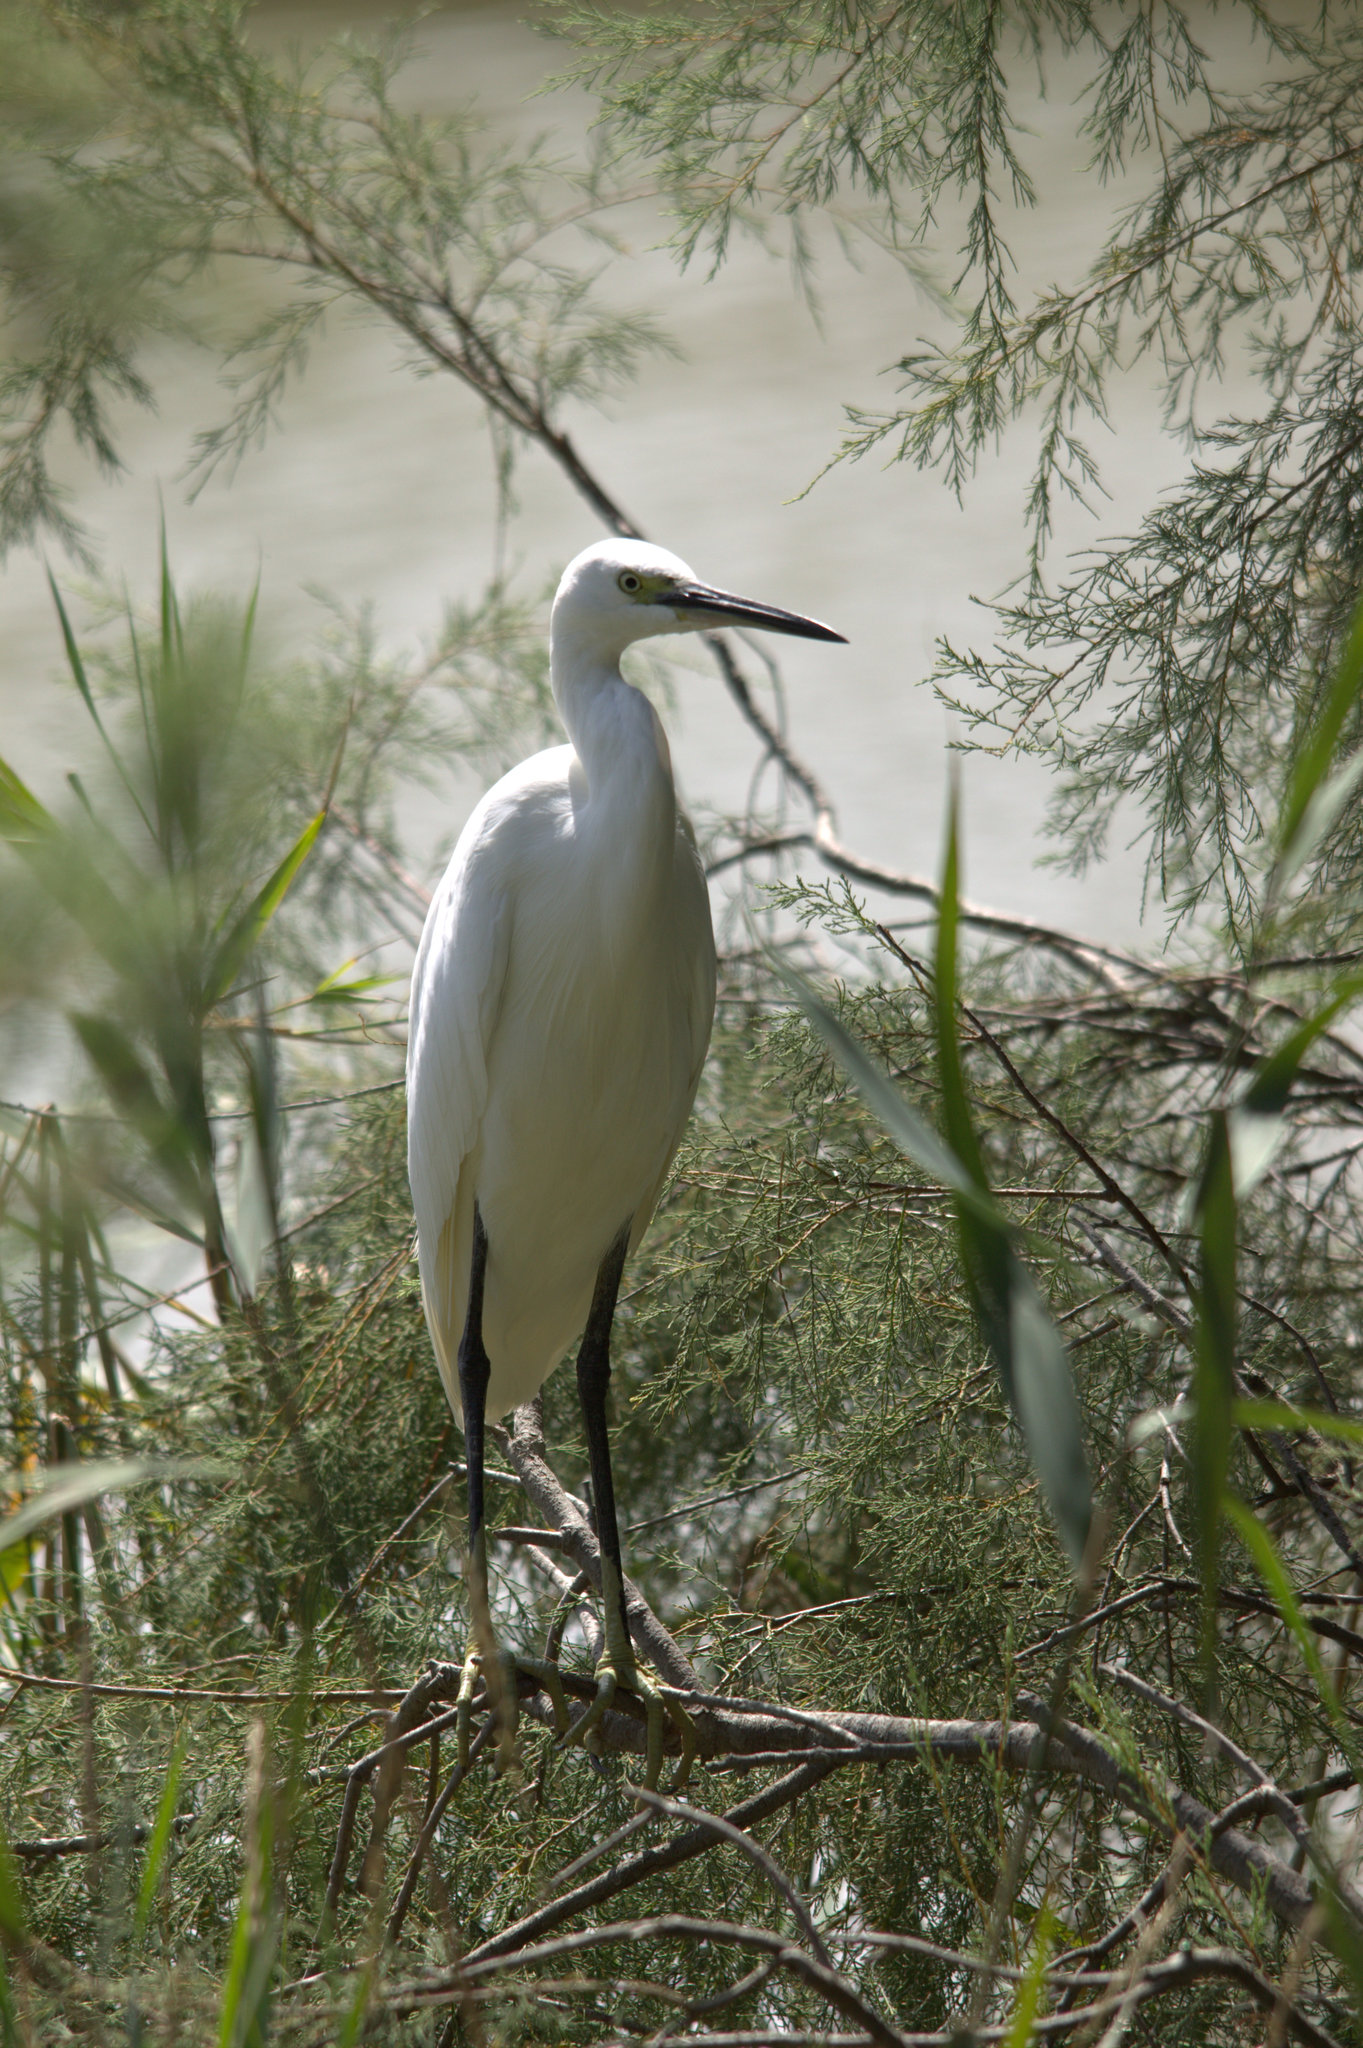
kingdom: Animalia
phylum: Chordata
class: Aves
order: Pelecaniformes
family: Ardeidae
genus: Egretta
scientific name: Egretta garzetta
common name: Little egret
